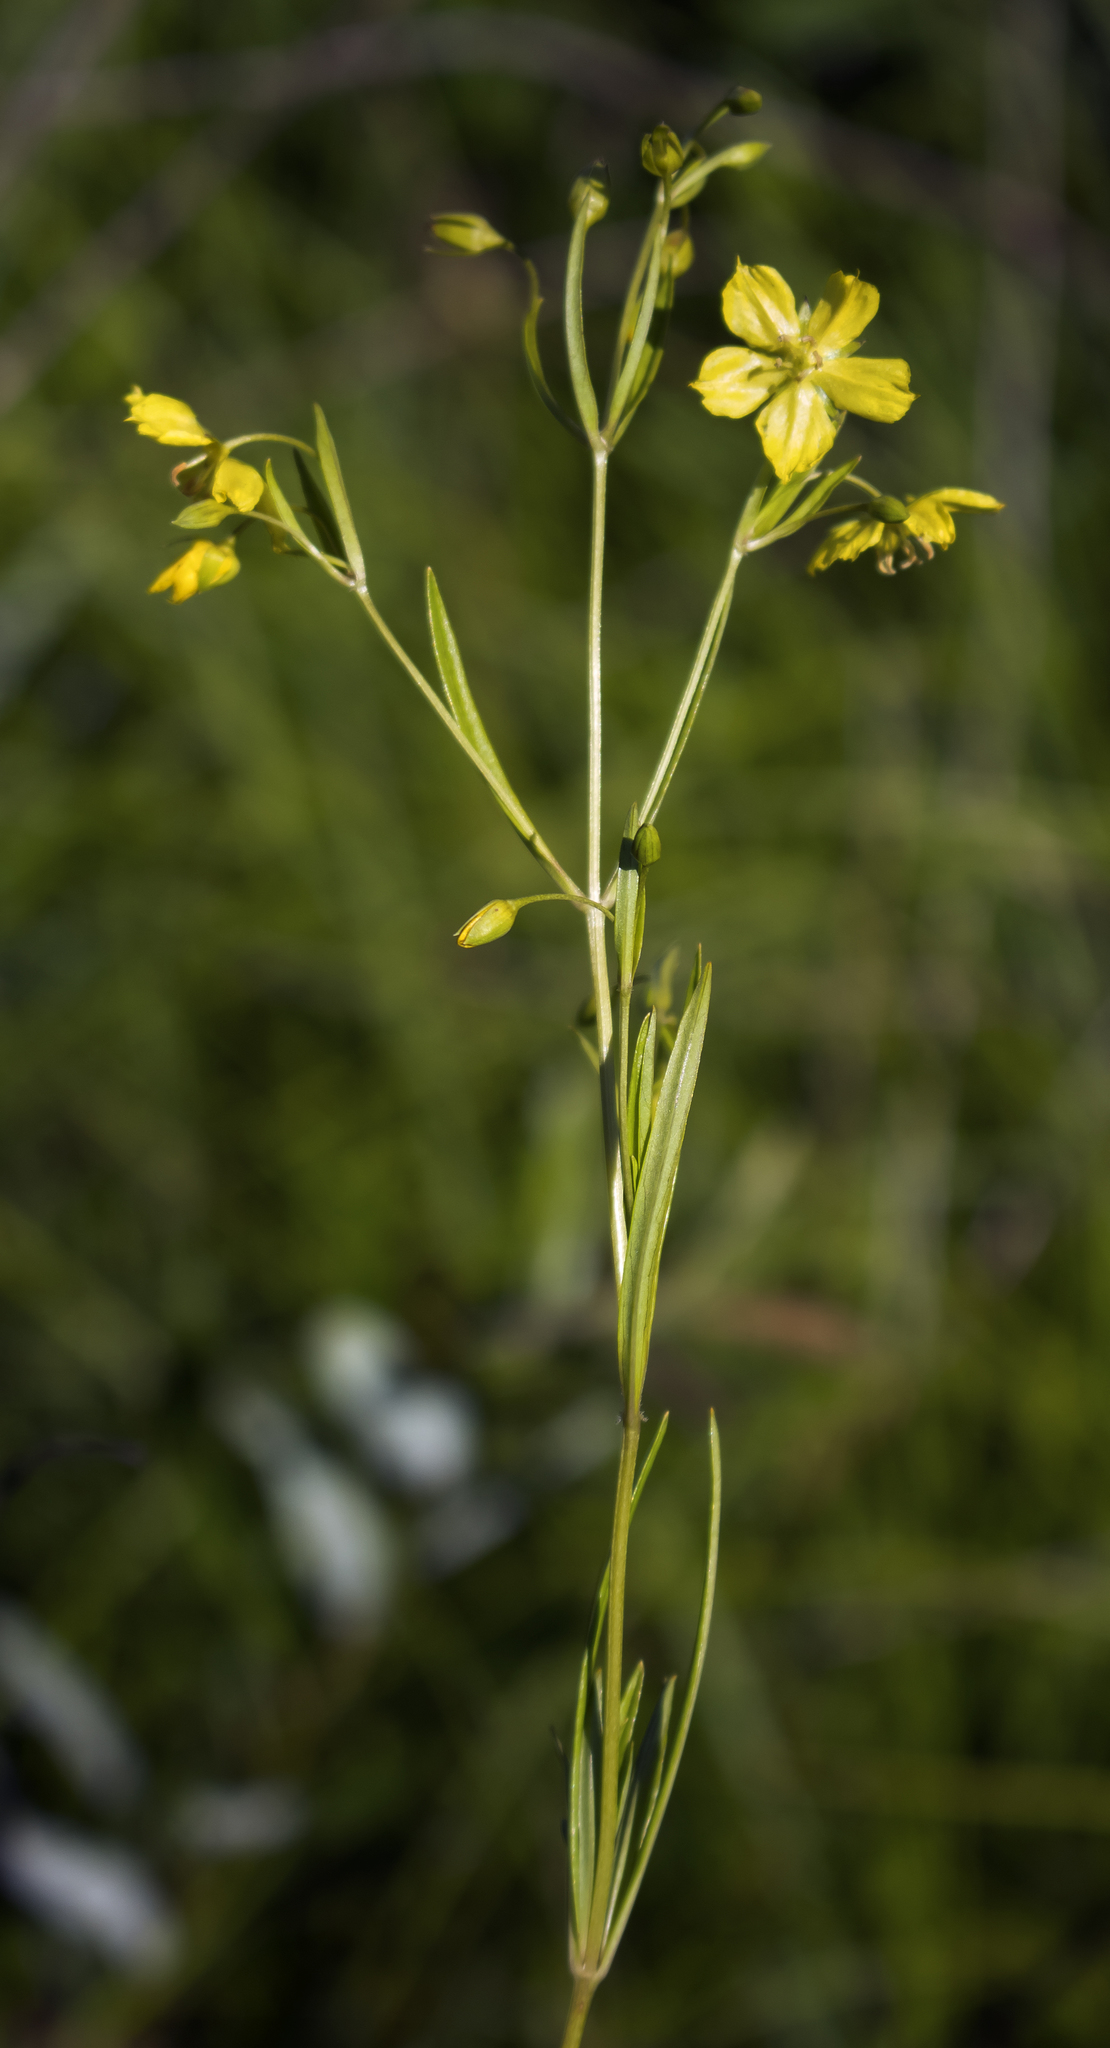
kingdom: Plantae
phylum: Tracheophyta
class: Magnoliopsida
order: Ericales
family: Primulaceae
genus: Lysimachia
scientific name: Lysimachia quadriflora
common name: Four-flowered loosestrife
